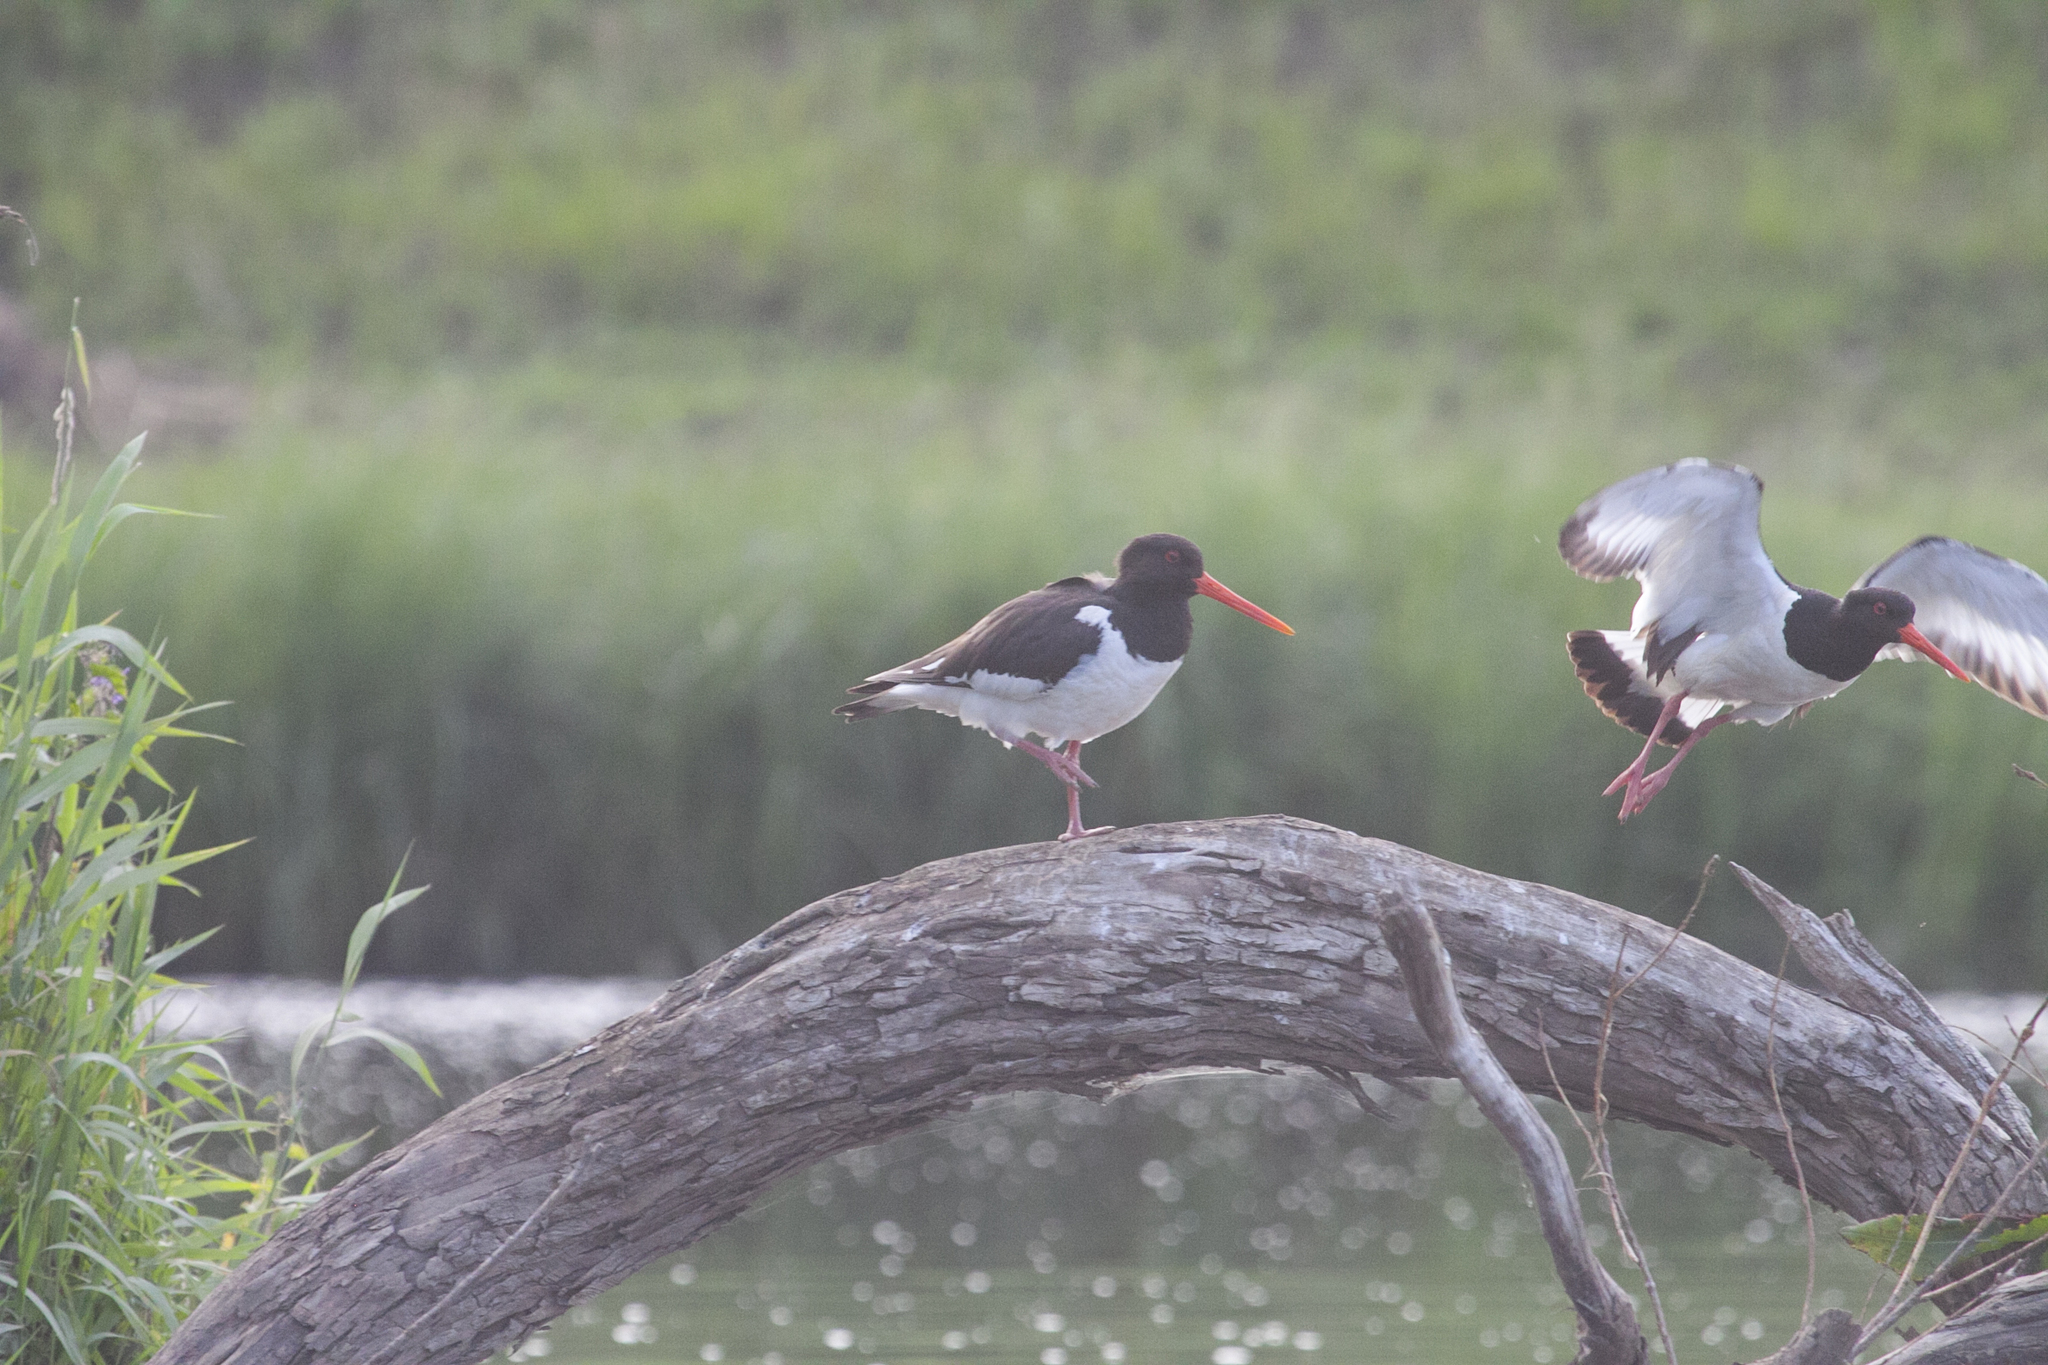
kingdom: Animalia
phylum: Chordata
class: Aves
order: Charadriiformes
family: Haematopodidae
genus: Haematopus
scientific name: Haematopus ostralegus
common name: Eurasian oystercatcher
